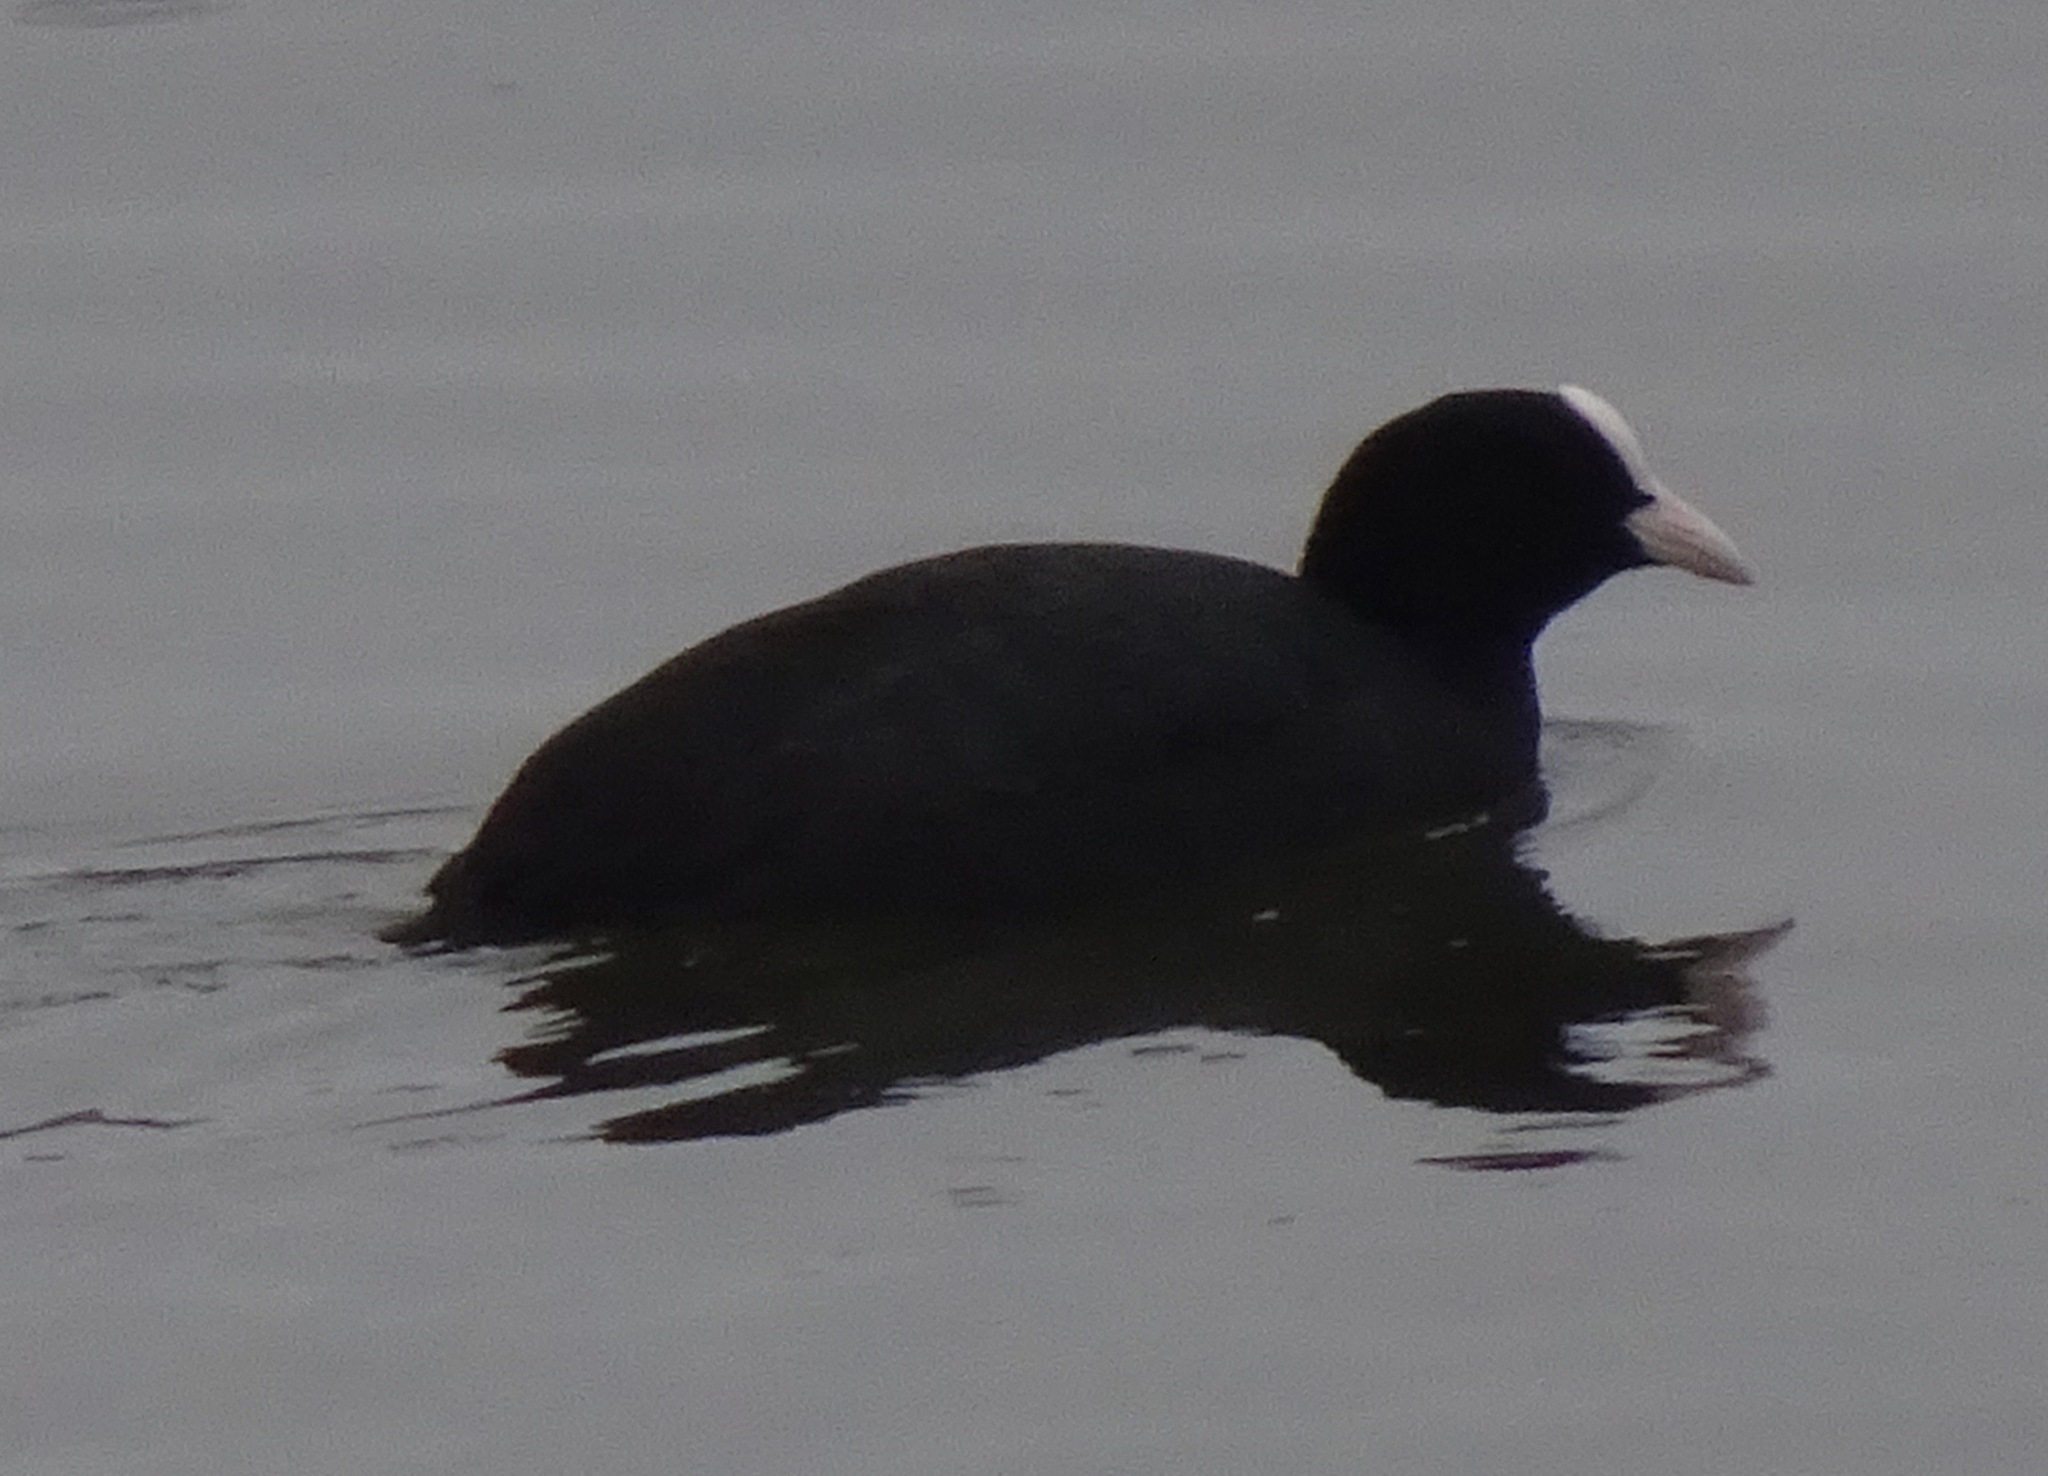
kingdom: Animalia
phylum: Chordata
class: Aves
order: Gruiformes
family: Rallidae
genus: Fulica
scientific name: Fulica atra
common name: Eurasian coot
